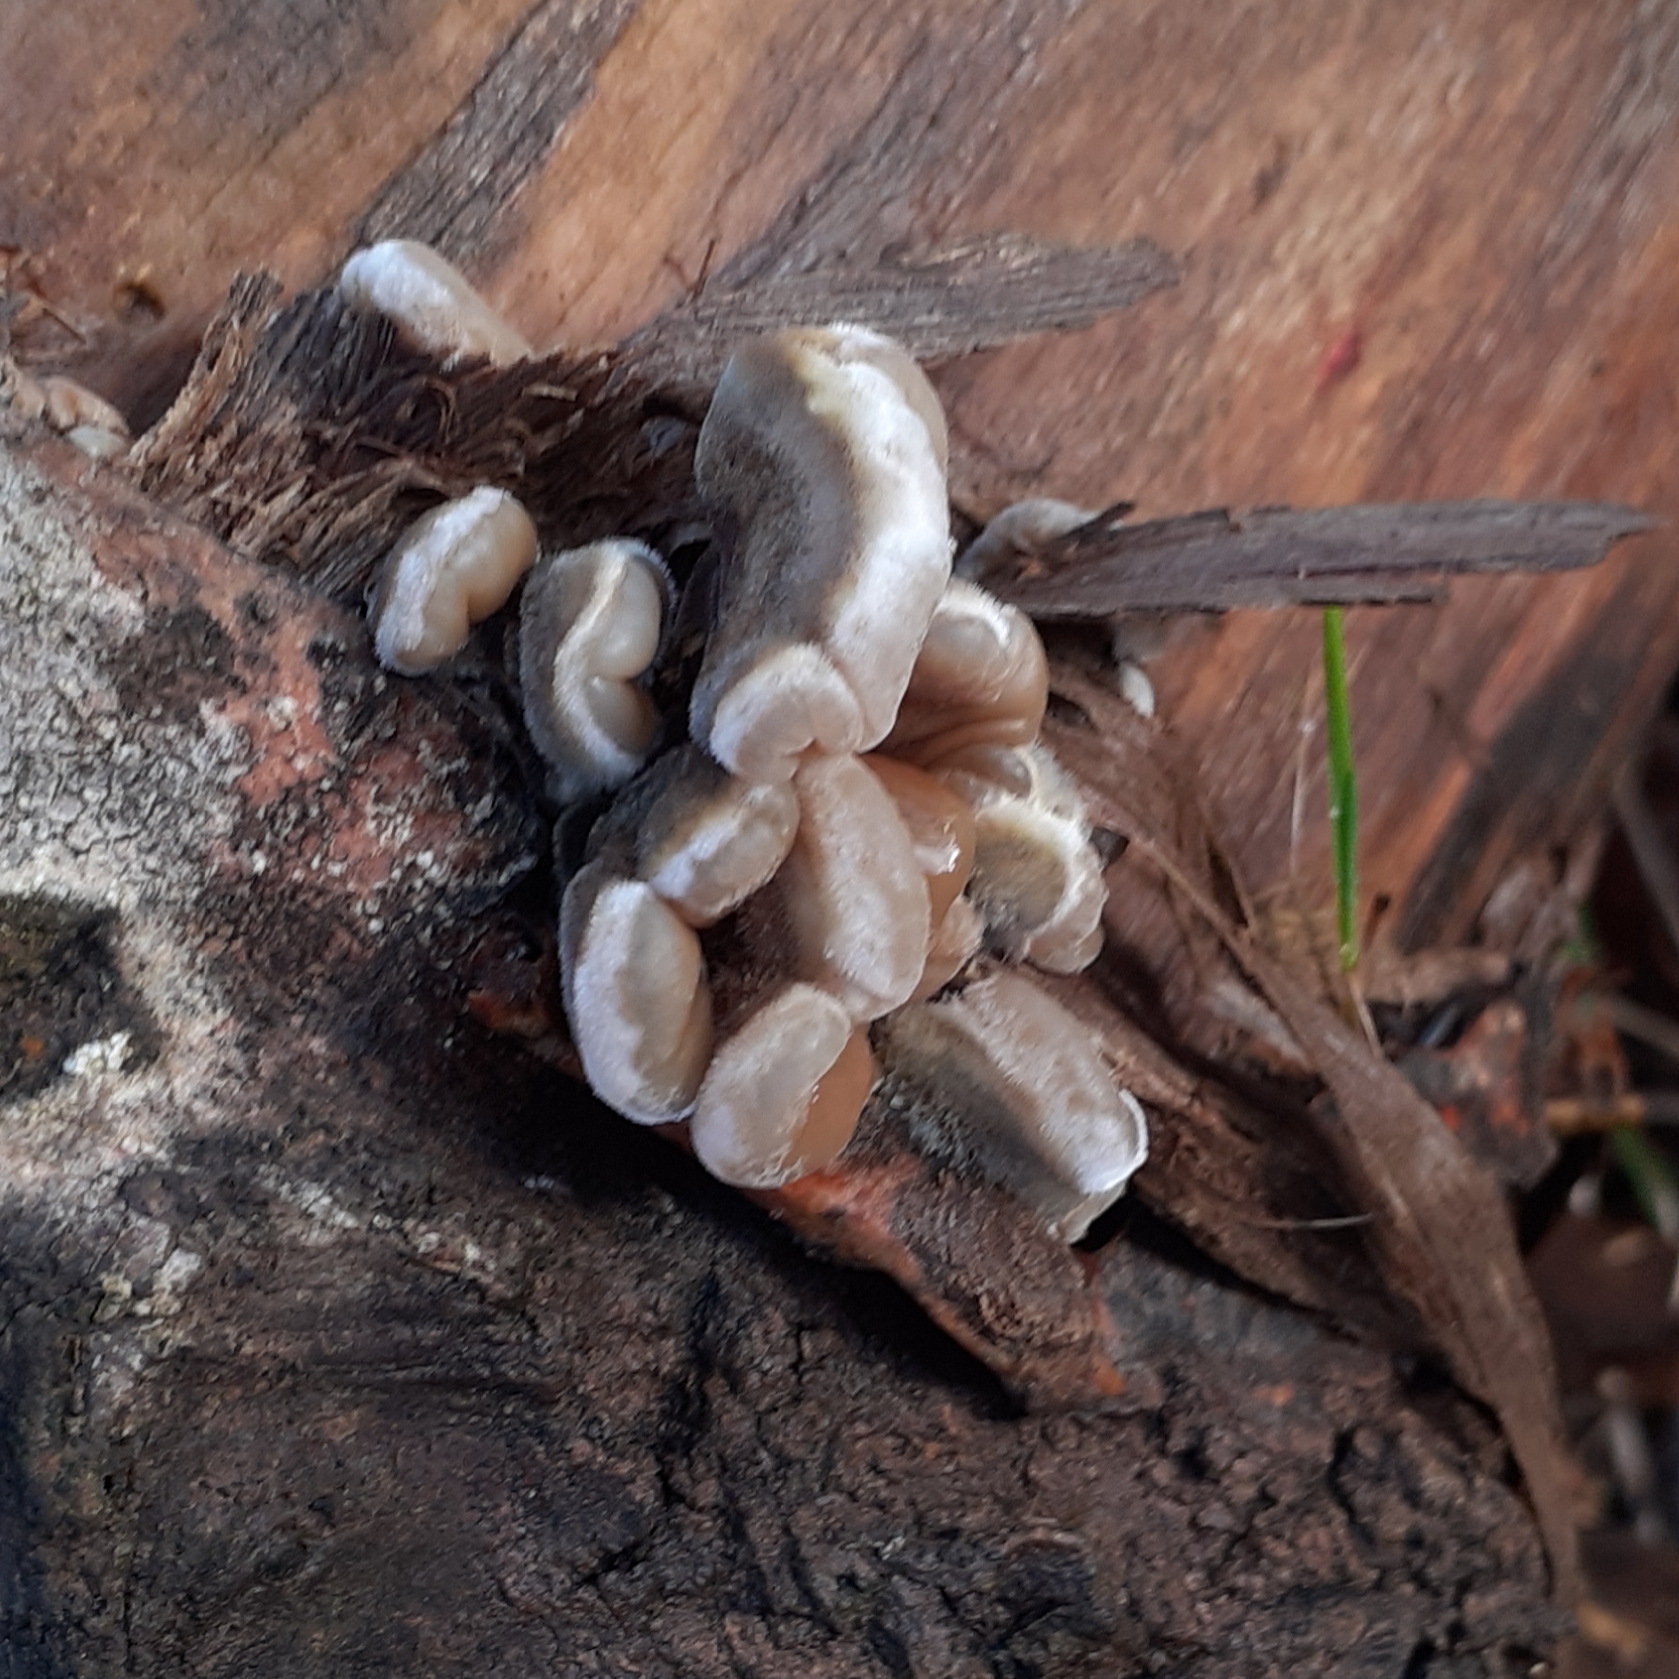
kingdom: Fungi
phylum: Basidiomycota
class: Agaricomycetes
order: Auriculariales
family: Auriculariaceae
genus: Auricularia
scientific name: Auricularia mesenterica
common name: Tripe fungus
